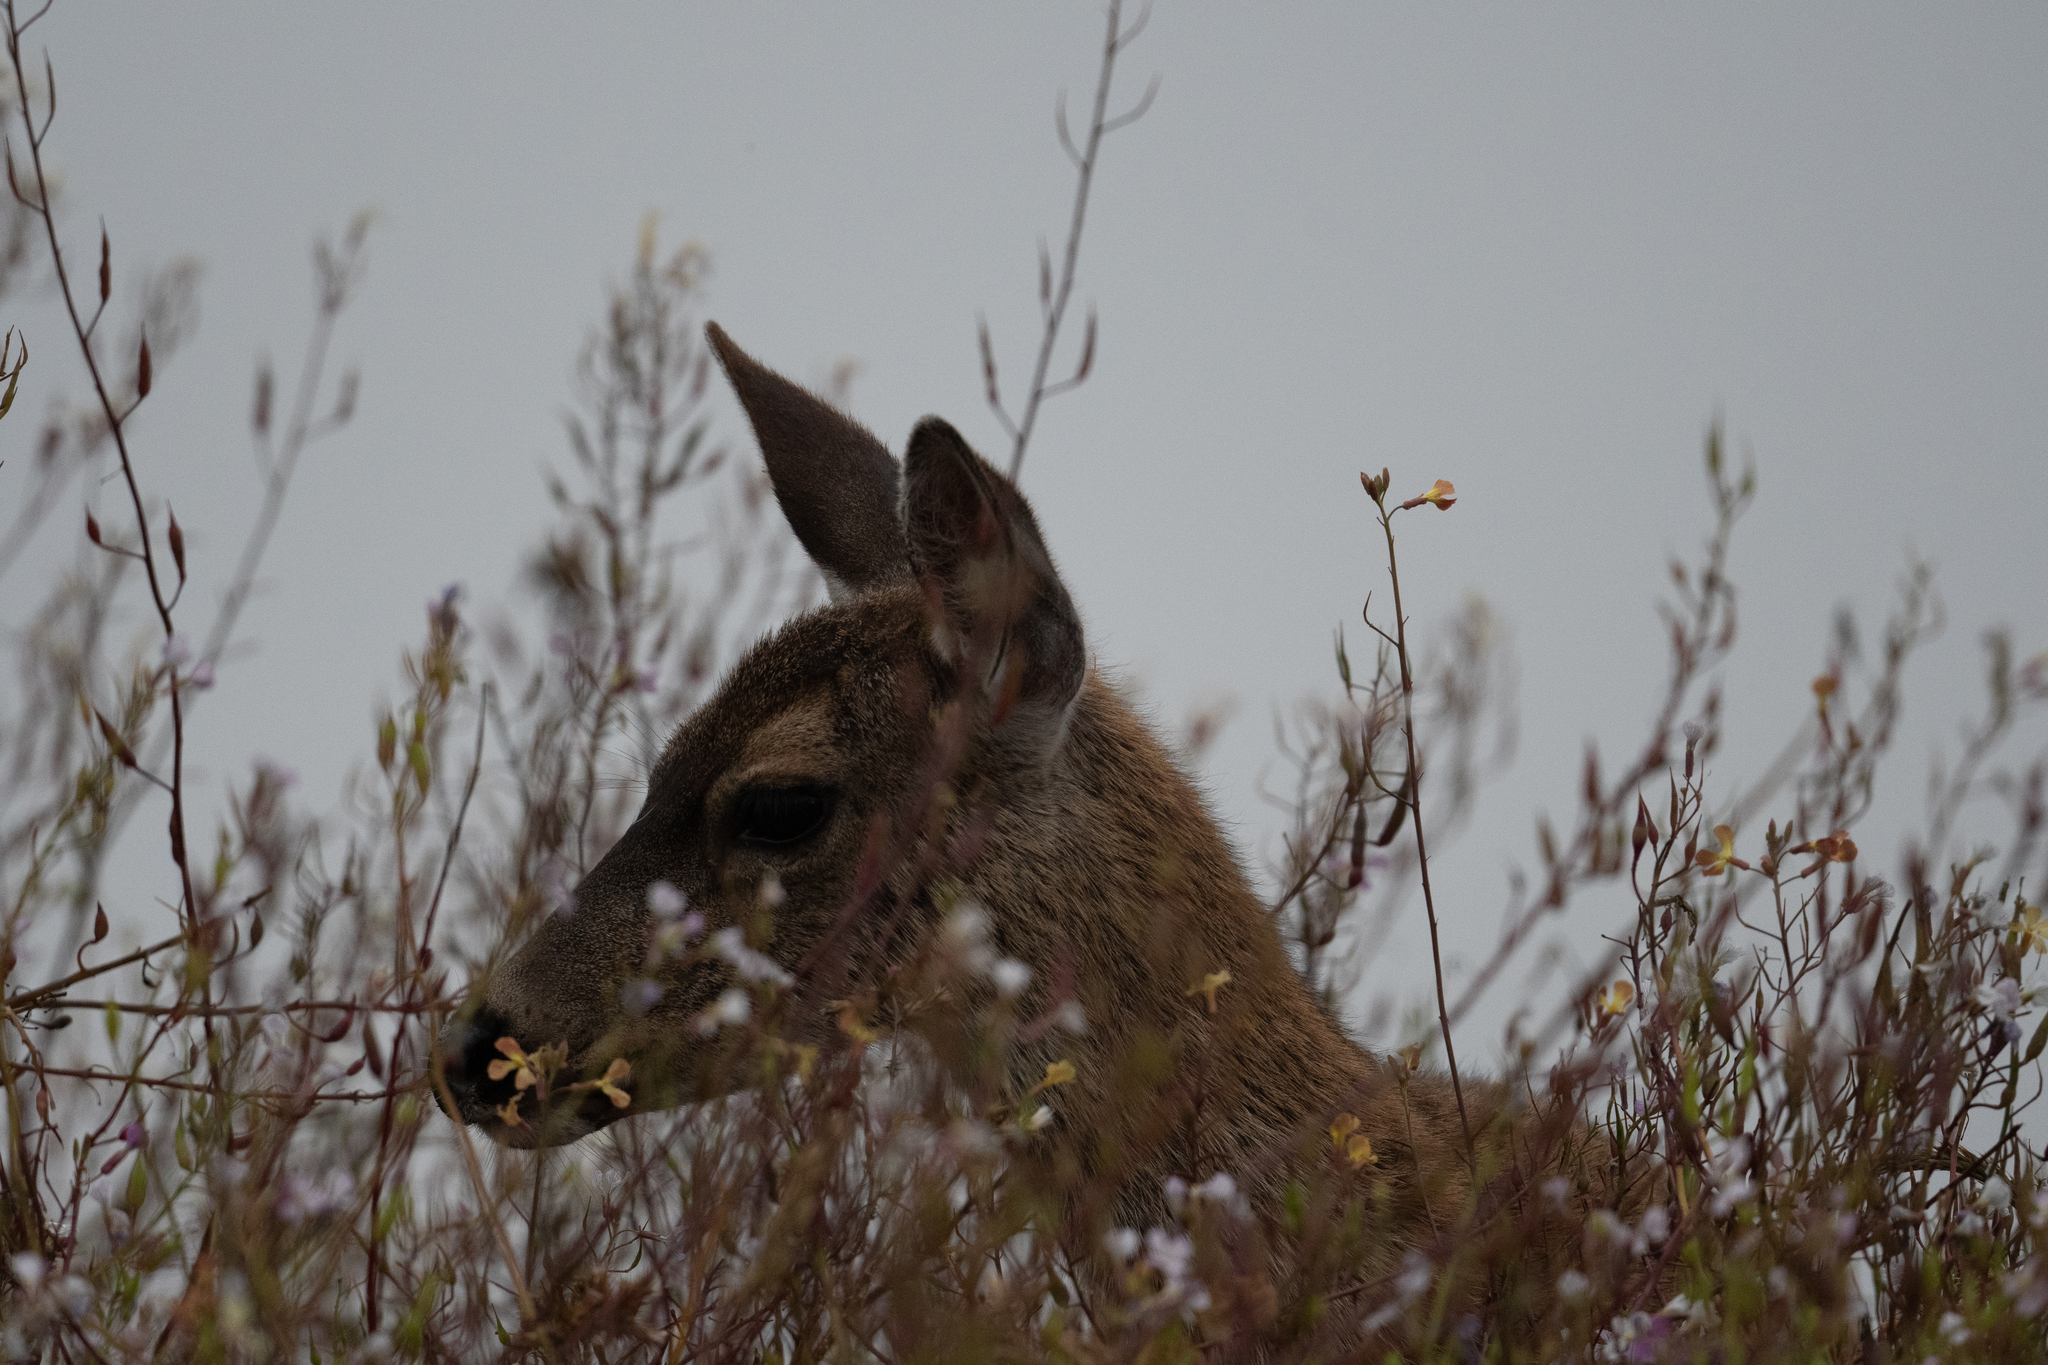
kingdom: Animalia
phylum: Chordata
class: Mammalia
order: Artiodactyla
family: Cervidae
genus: Odocoileus
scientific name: Odocoileus hemionus
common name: Mule deer
